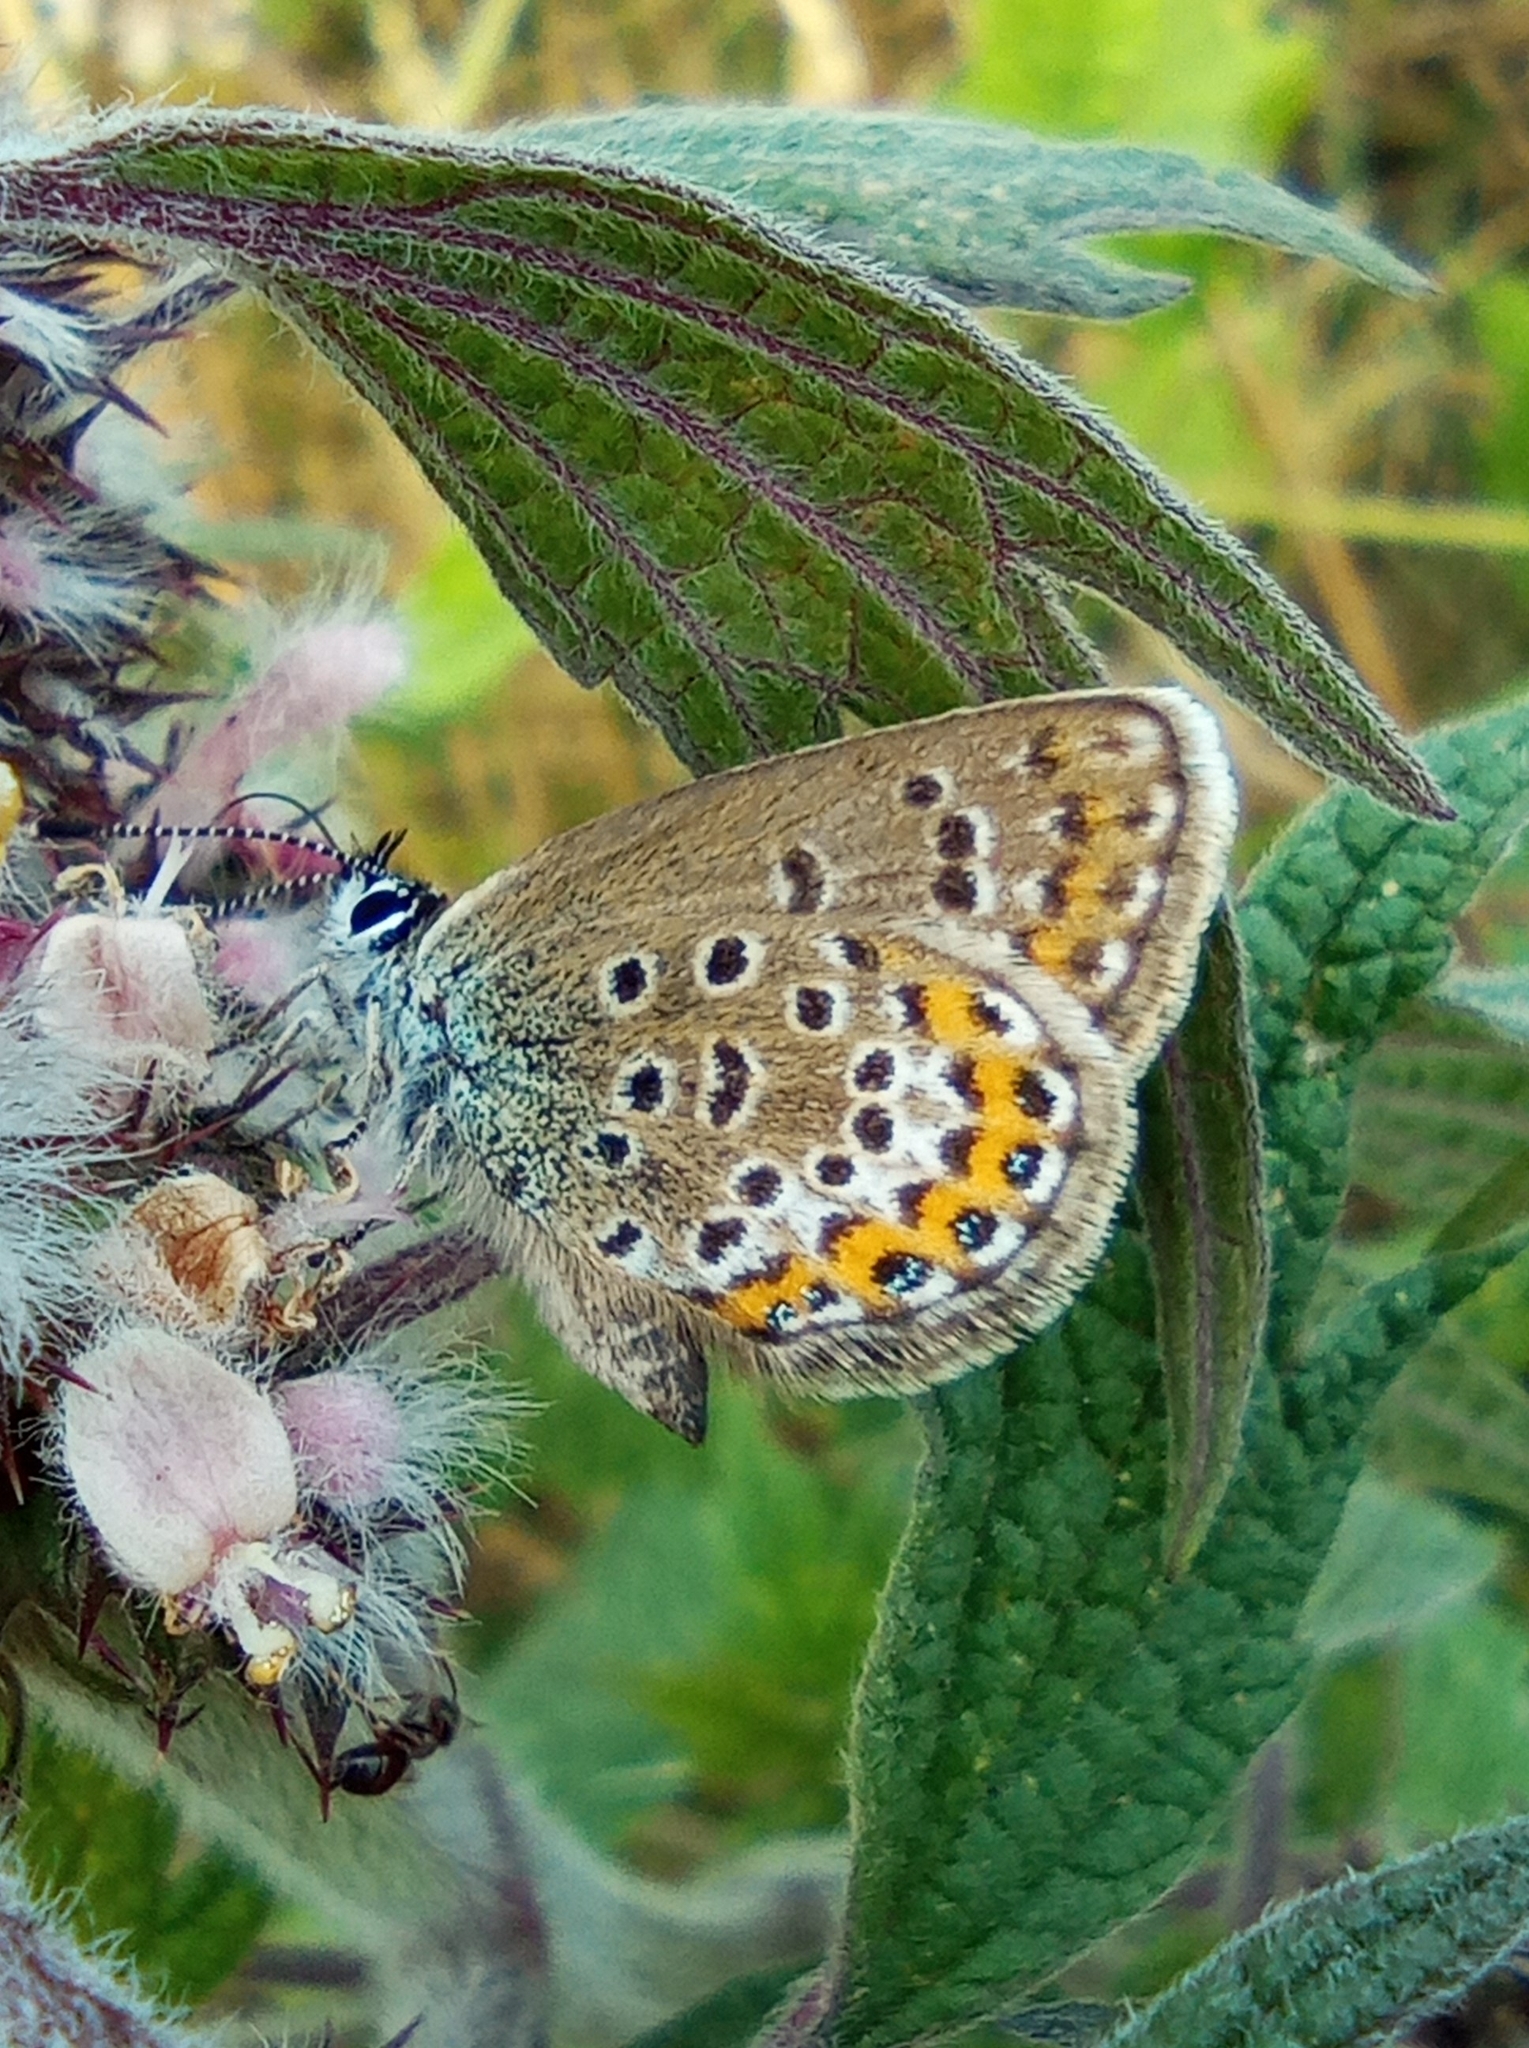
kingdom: Animalia
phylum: Arthropoda
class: Insecta
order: Lepidoptera
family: Lycaenidae
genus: Plebejus
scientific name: Plebejus argus
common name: Silver-studded blue
